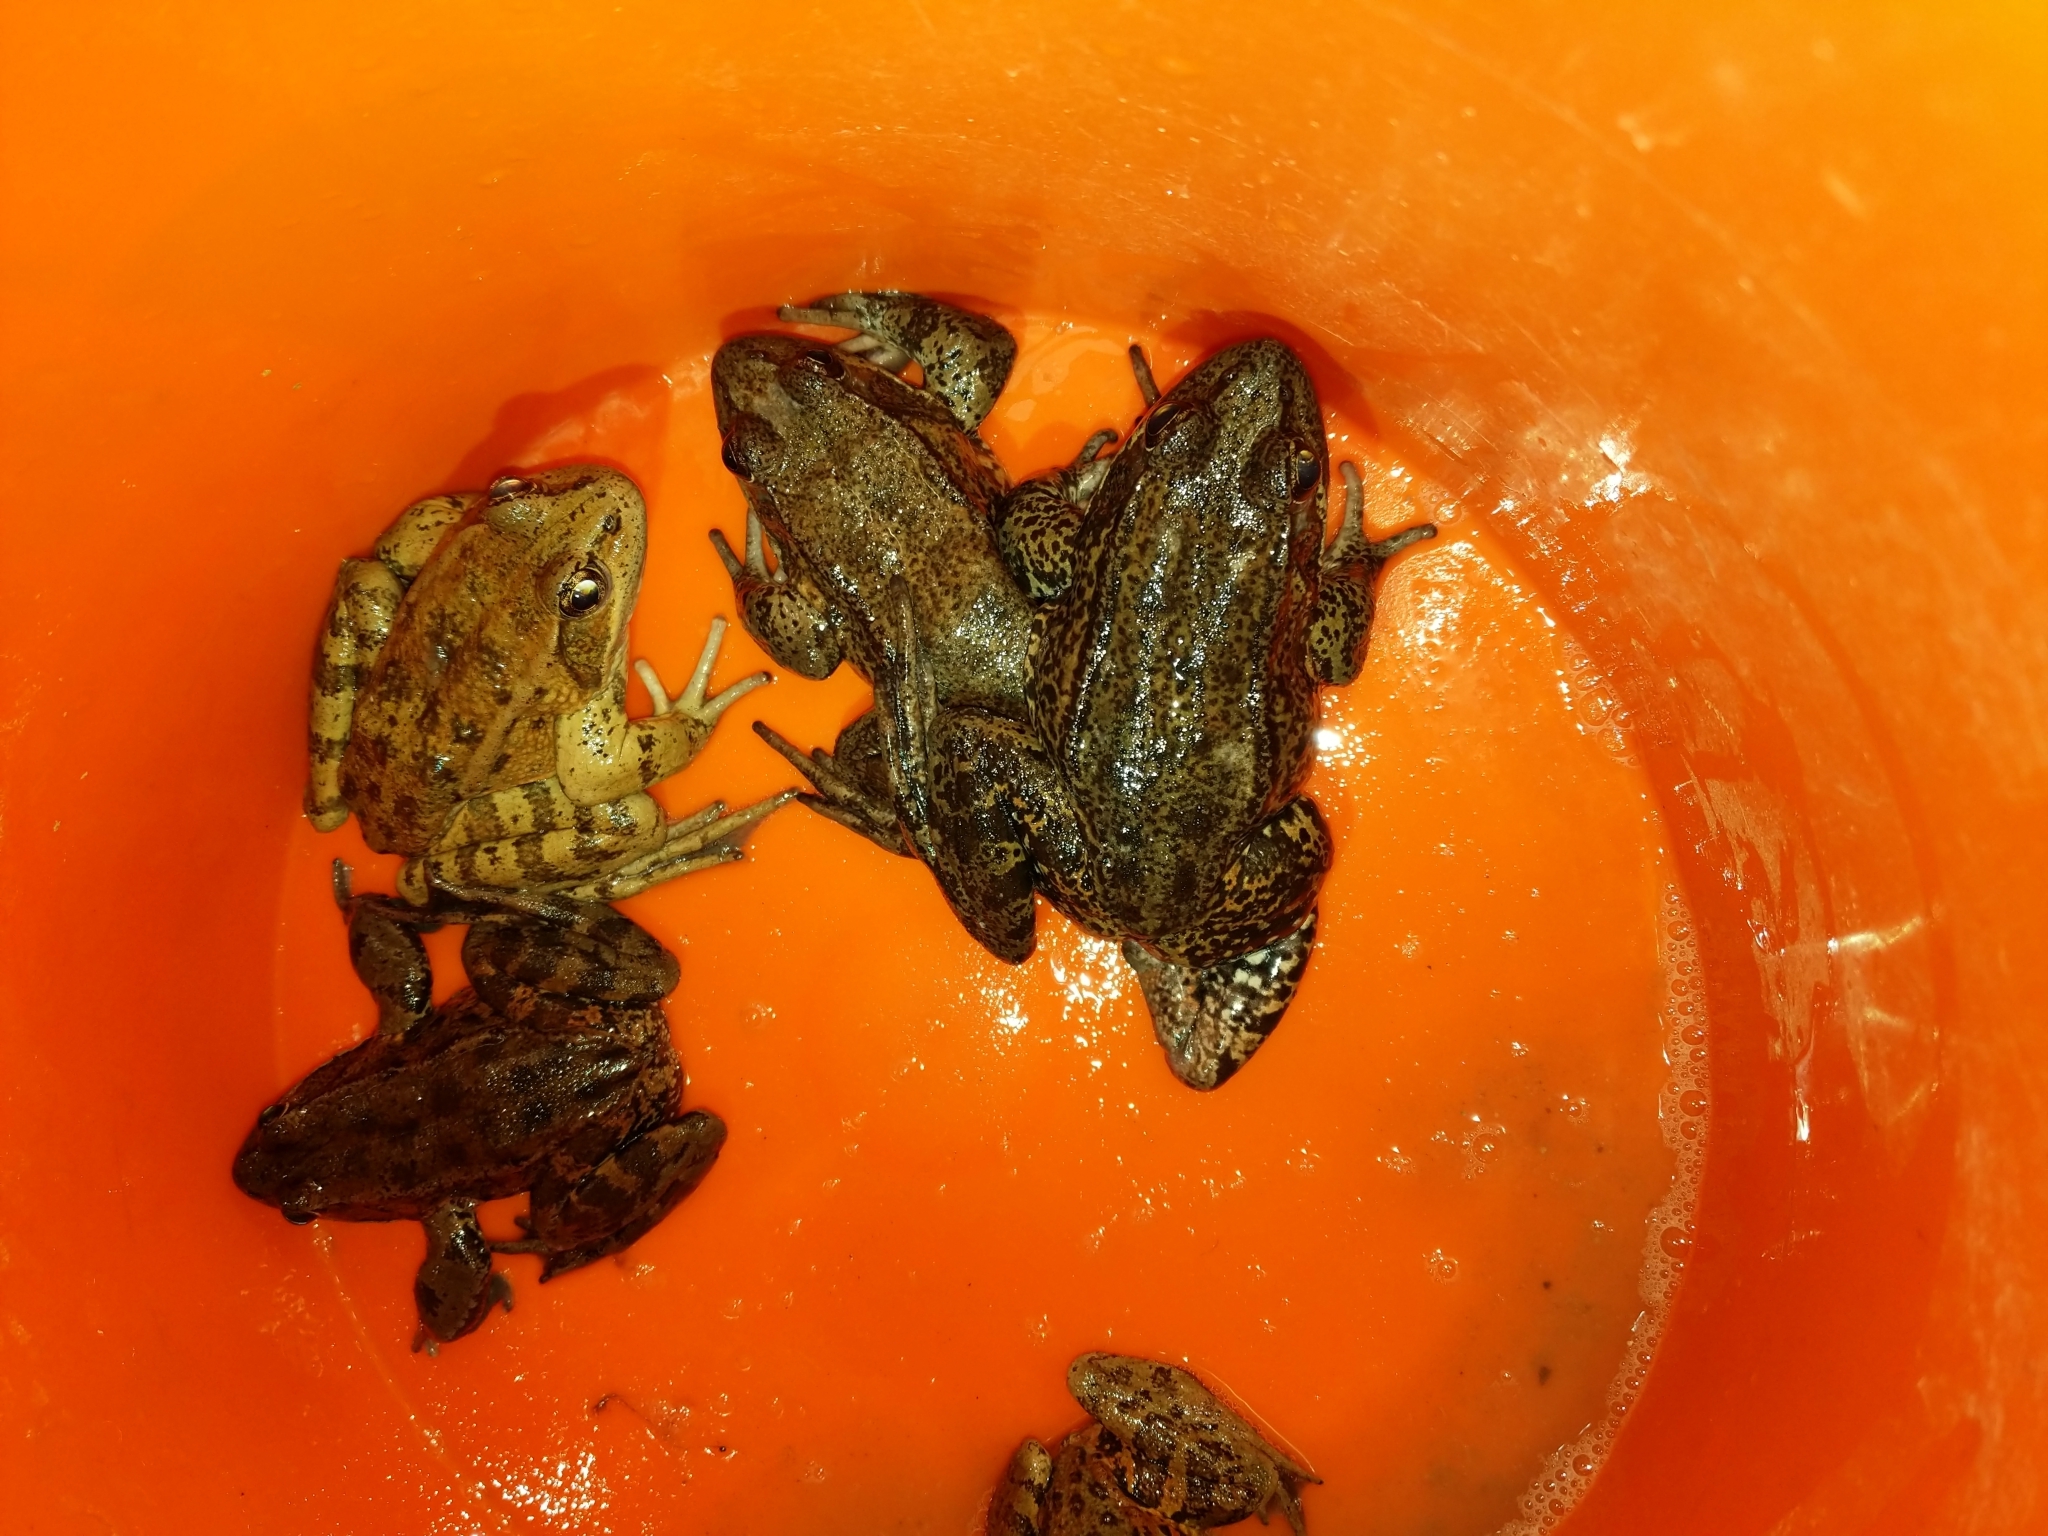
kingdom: Animalia
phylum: Chordata
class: Amphibia
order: Anura
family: Ranidae
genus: Rana
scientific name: Rana draytonii
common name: California red-legged frog
